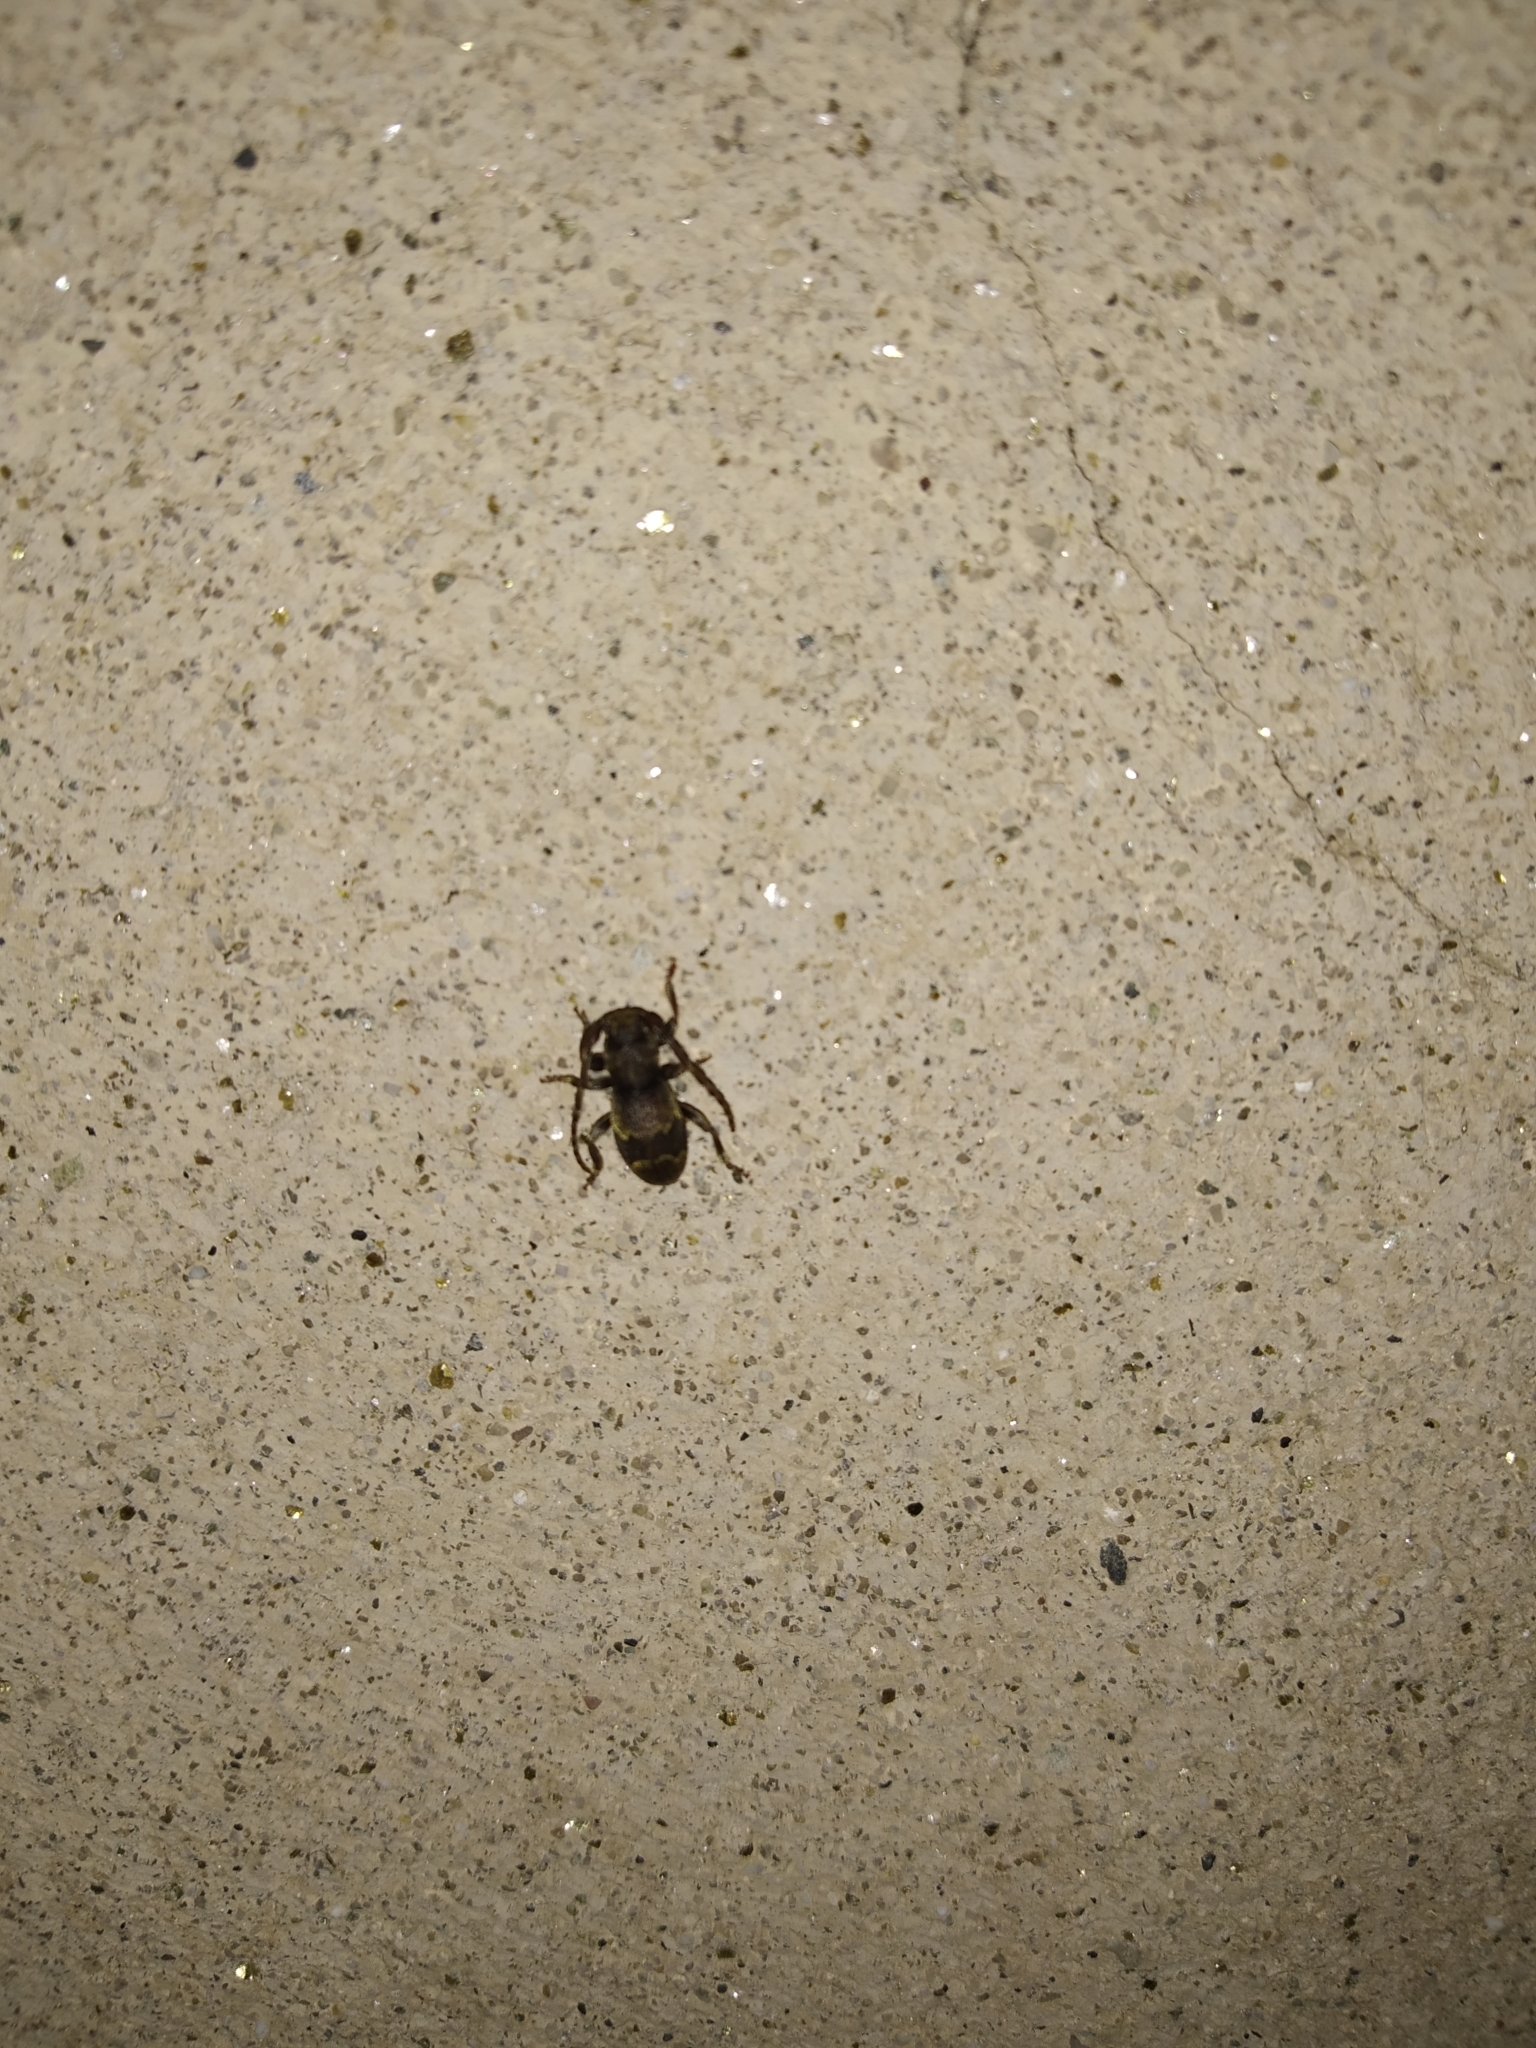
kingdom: Animalia
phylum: Arthropoda
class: Insecta
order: Coleoptera
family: Cerambycidae
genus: Parmena
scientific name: Parmena unifasciata
